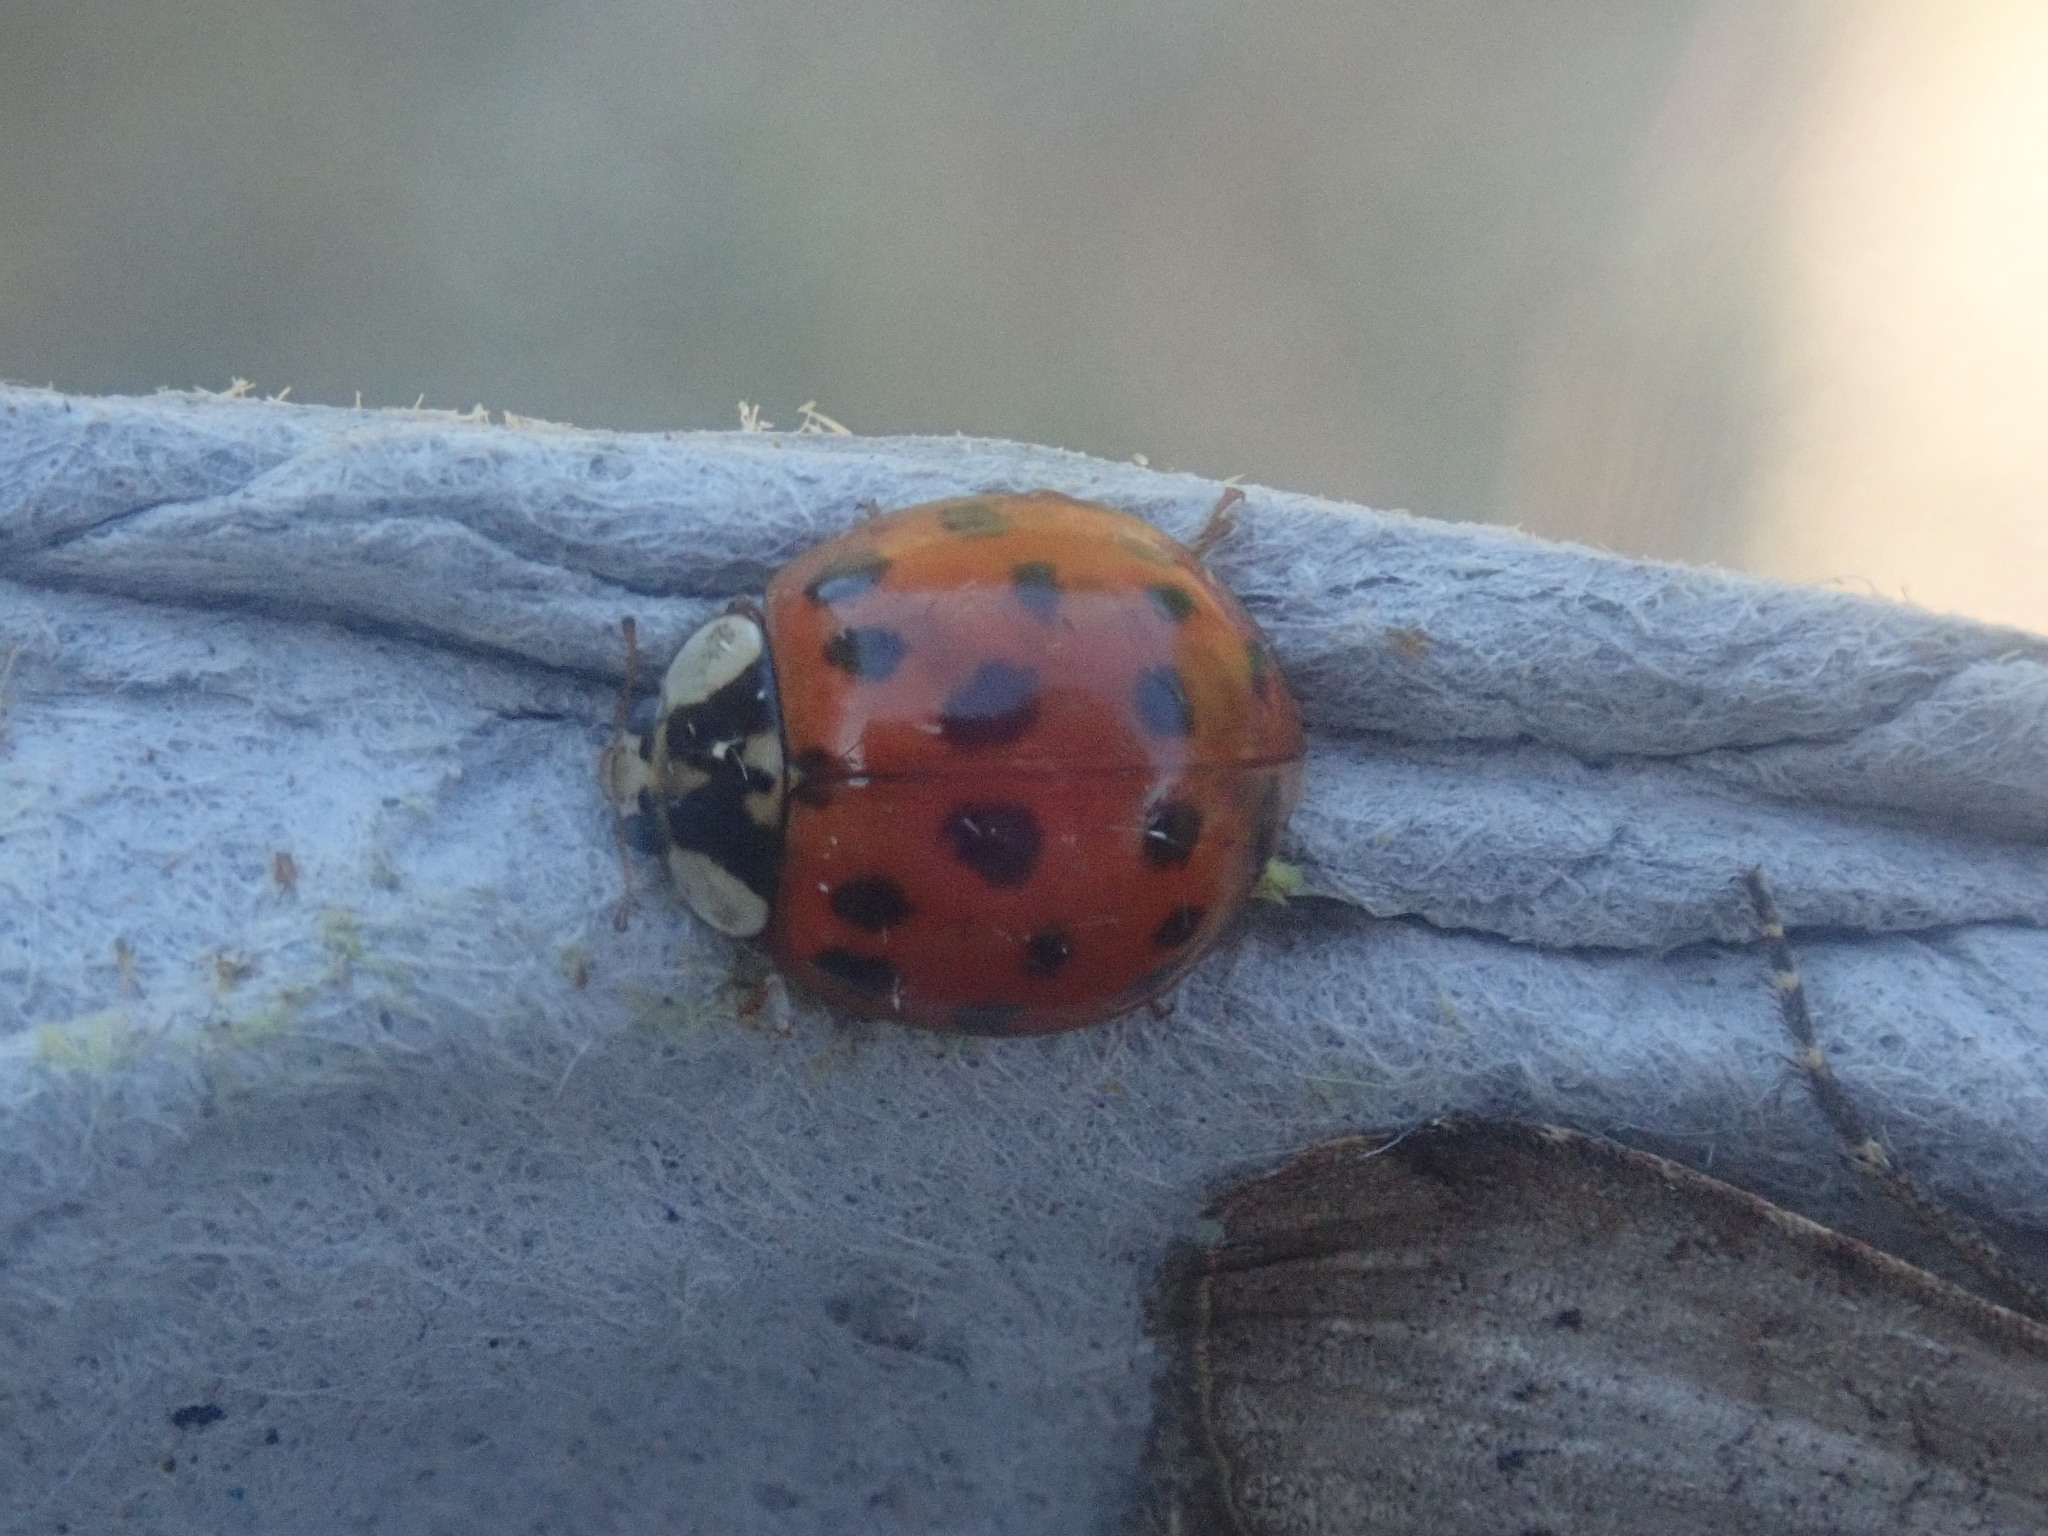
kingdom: Animalia
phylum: Arthropoda
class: Insecta
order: Coleoptera
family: Coccinellidae
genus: Harmonia
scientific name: Harmonia axyridis
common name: Harlequin ladybird
